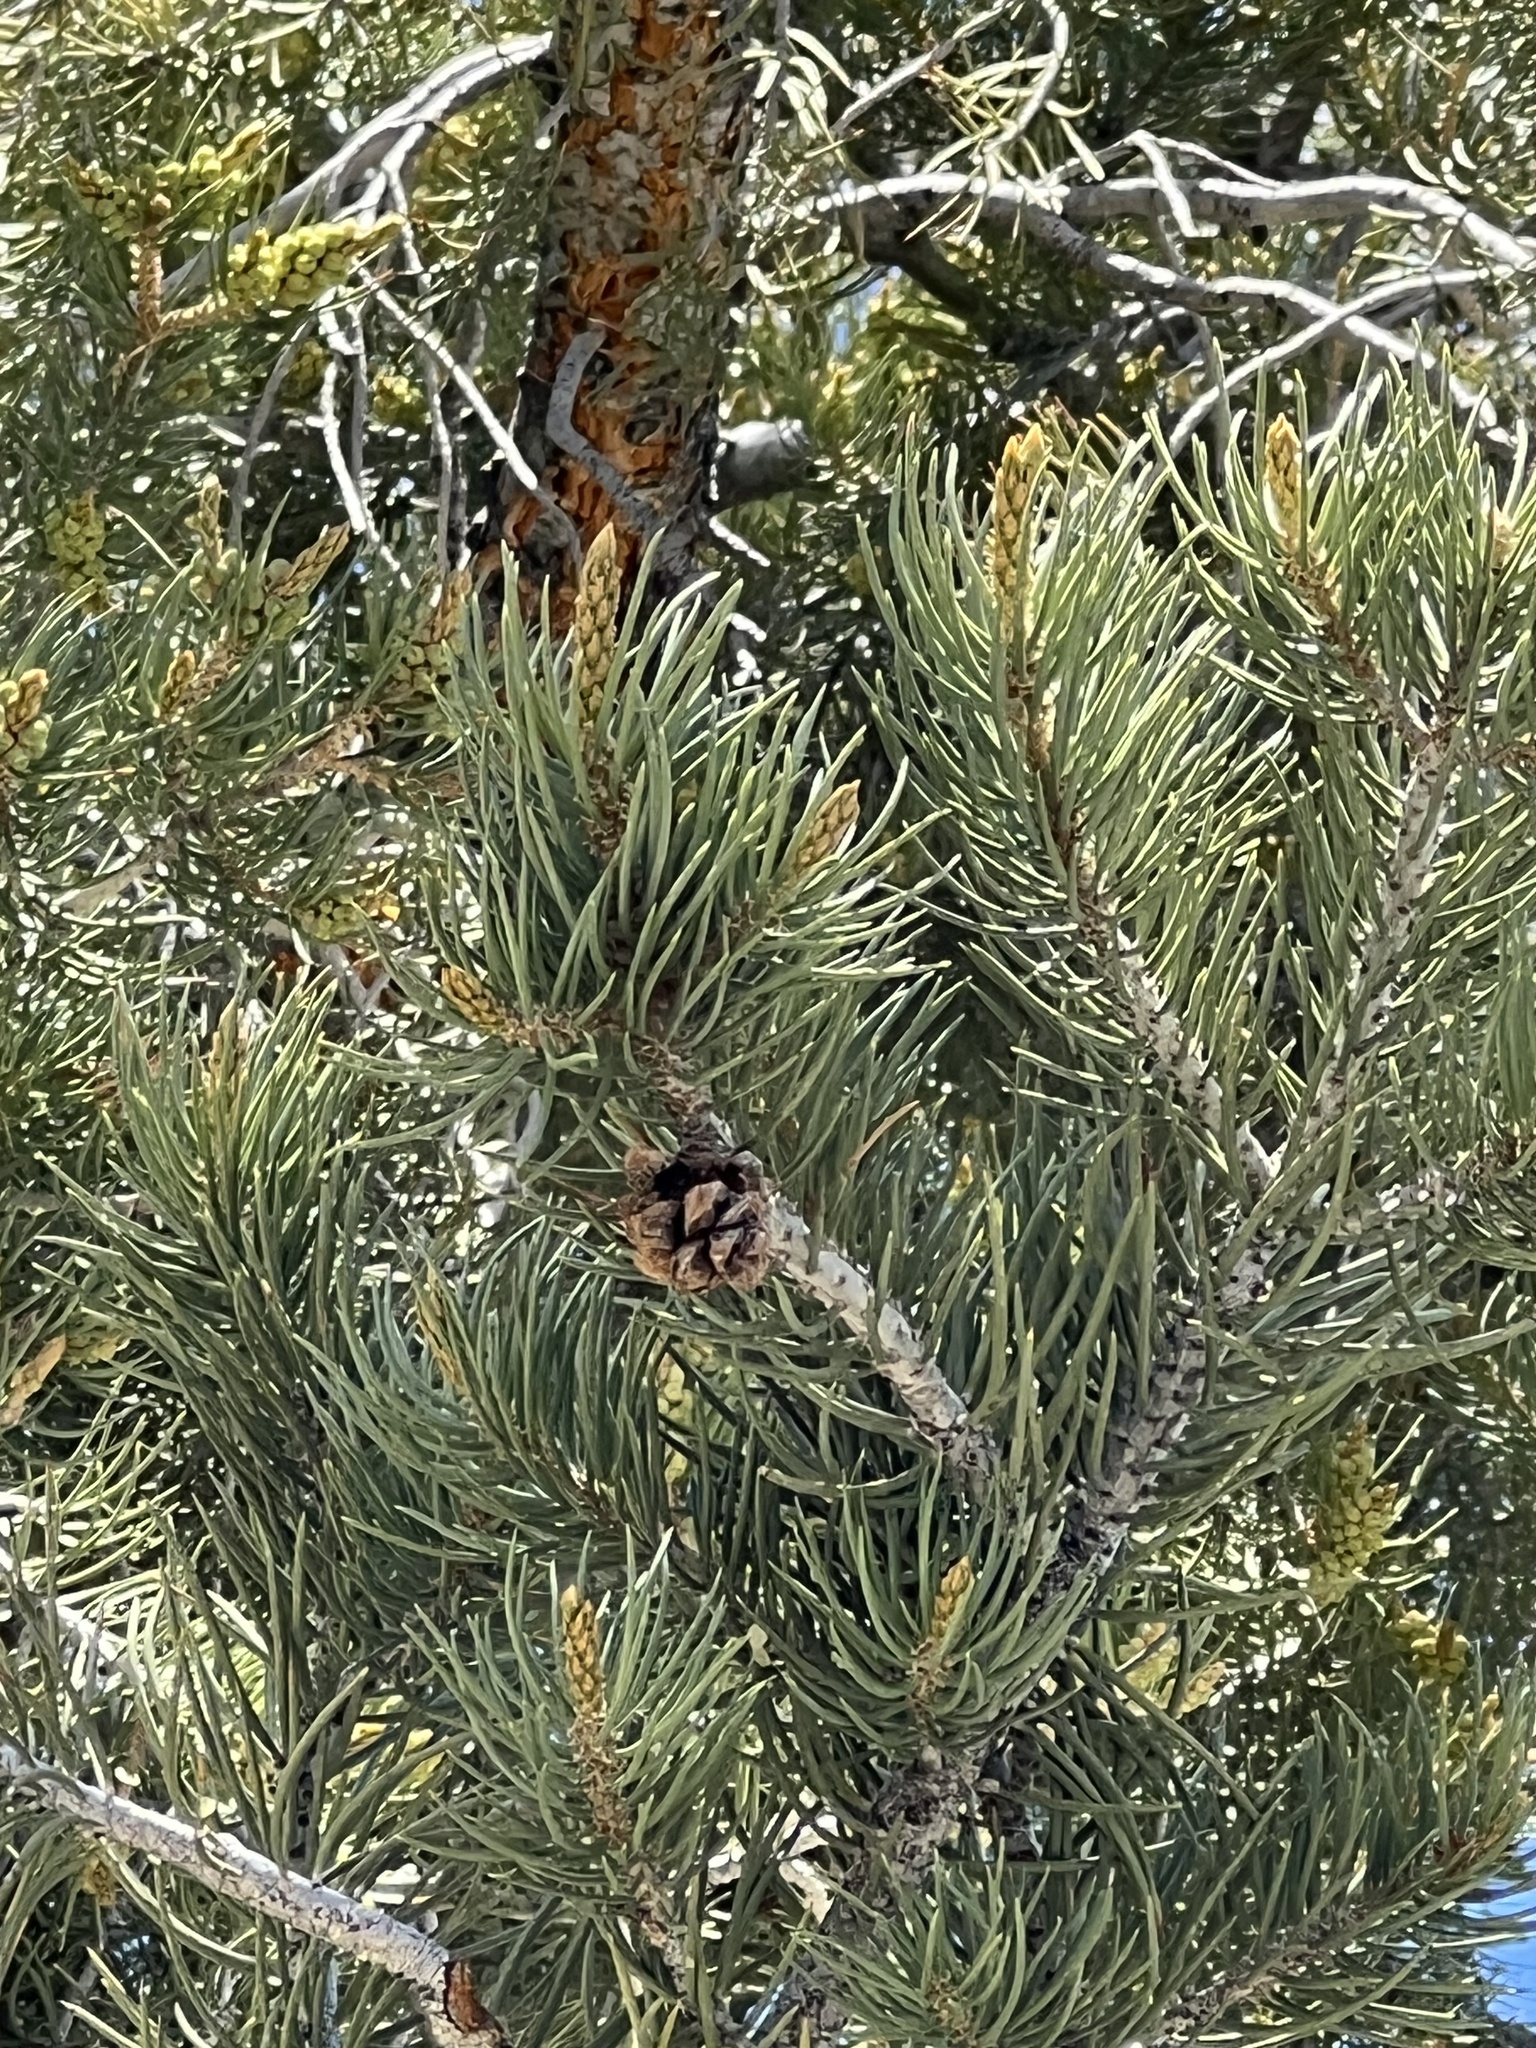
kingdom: Plantae
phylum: Tracheophyta
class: Pinopsida
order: Pinales
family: Pinaceae
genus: Pinus
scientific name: Pinus monophylla
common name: One-leaved nut pine
